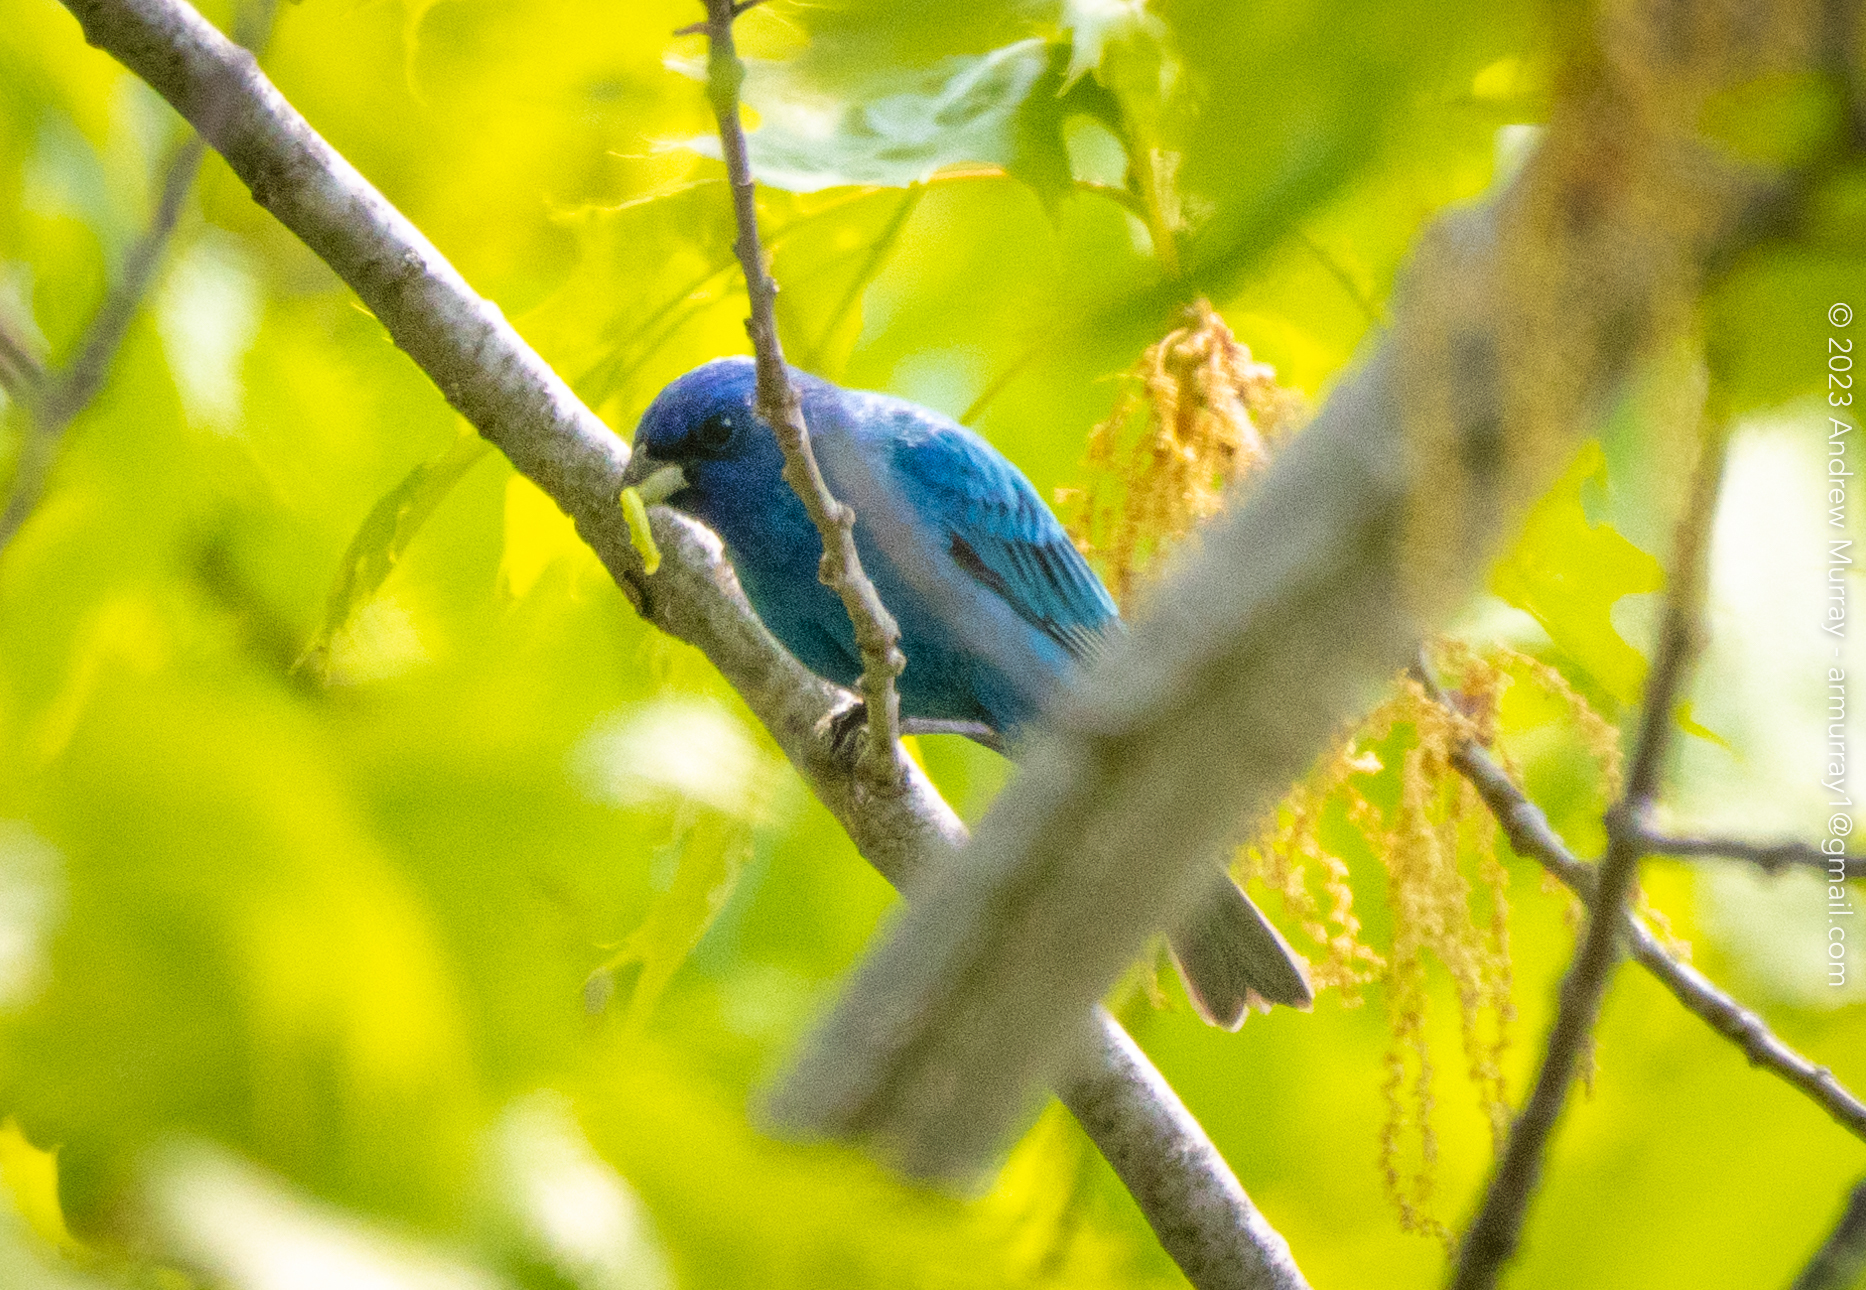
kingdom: Animalia
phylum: Chordata
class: Aves
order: Passeriformes
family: Cardinalidae
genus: Passerina
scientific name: Passerina cyanea
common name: Indigo bunting
